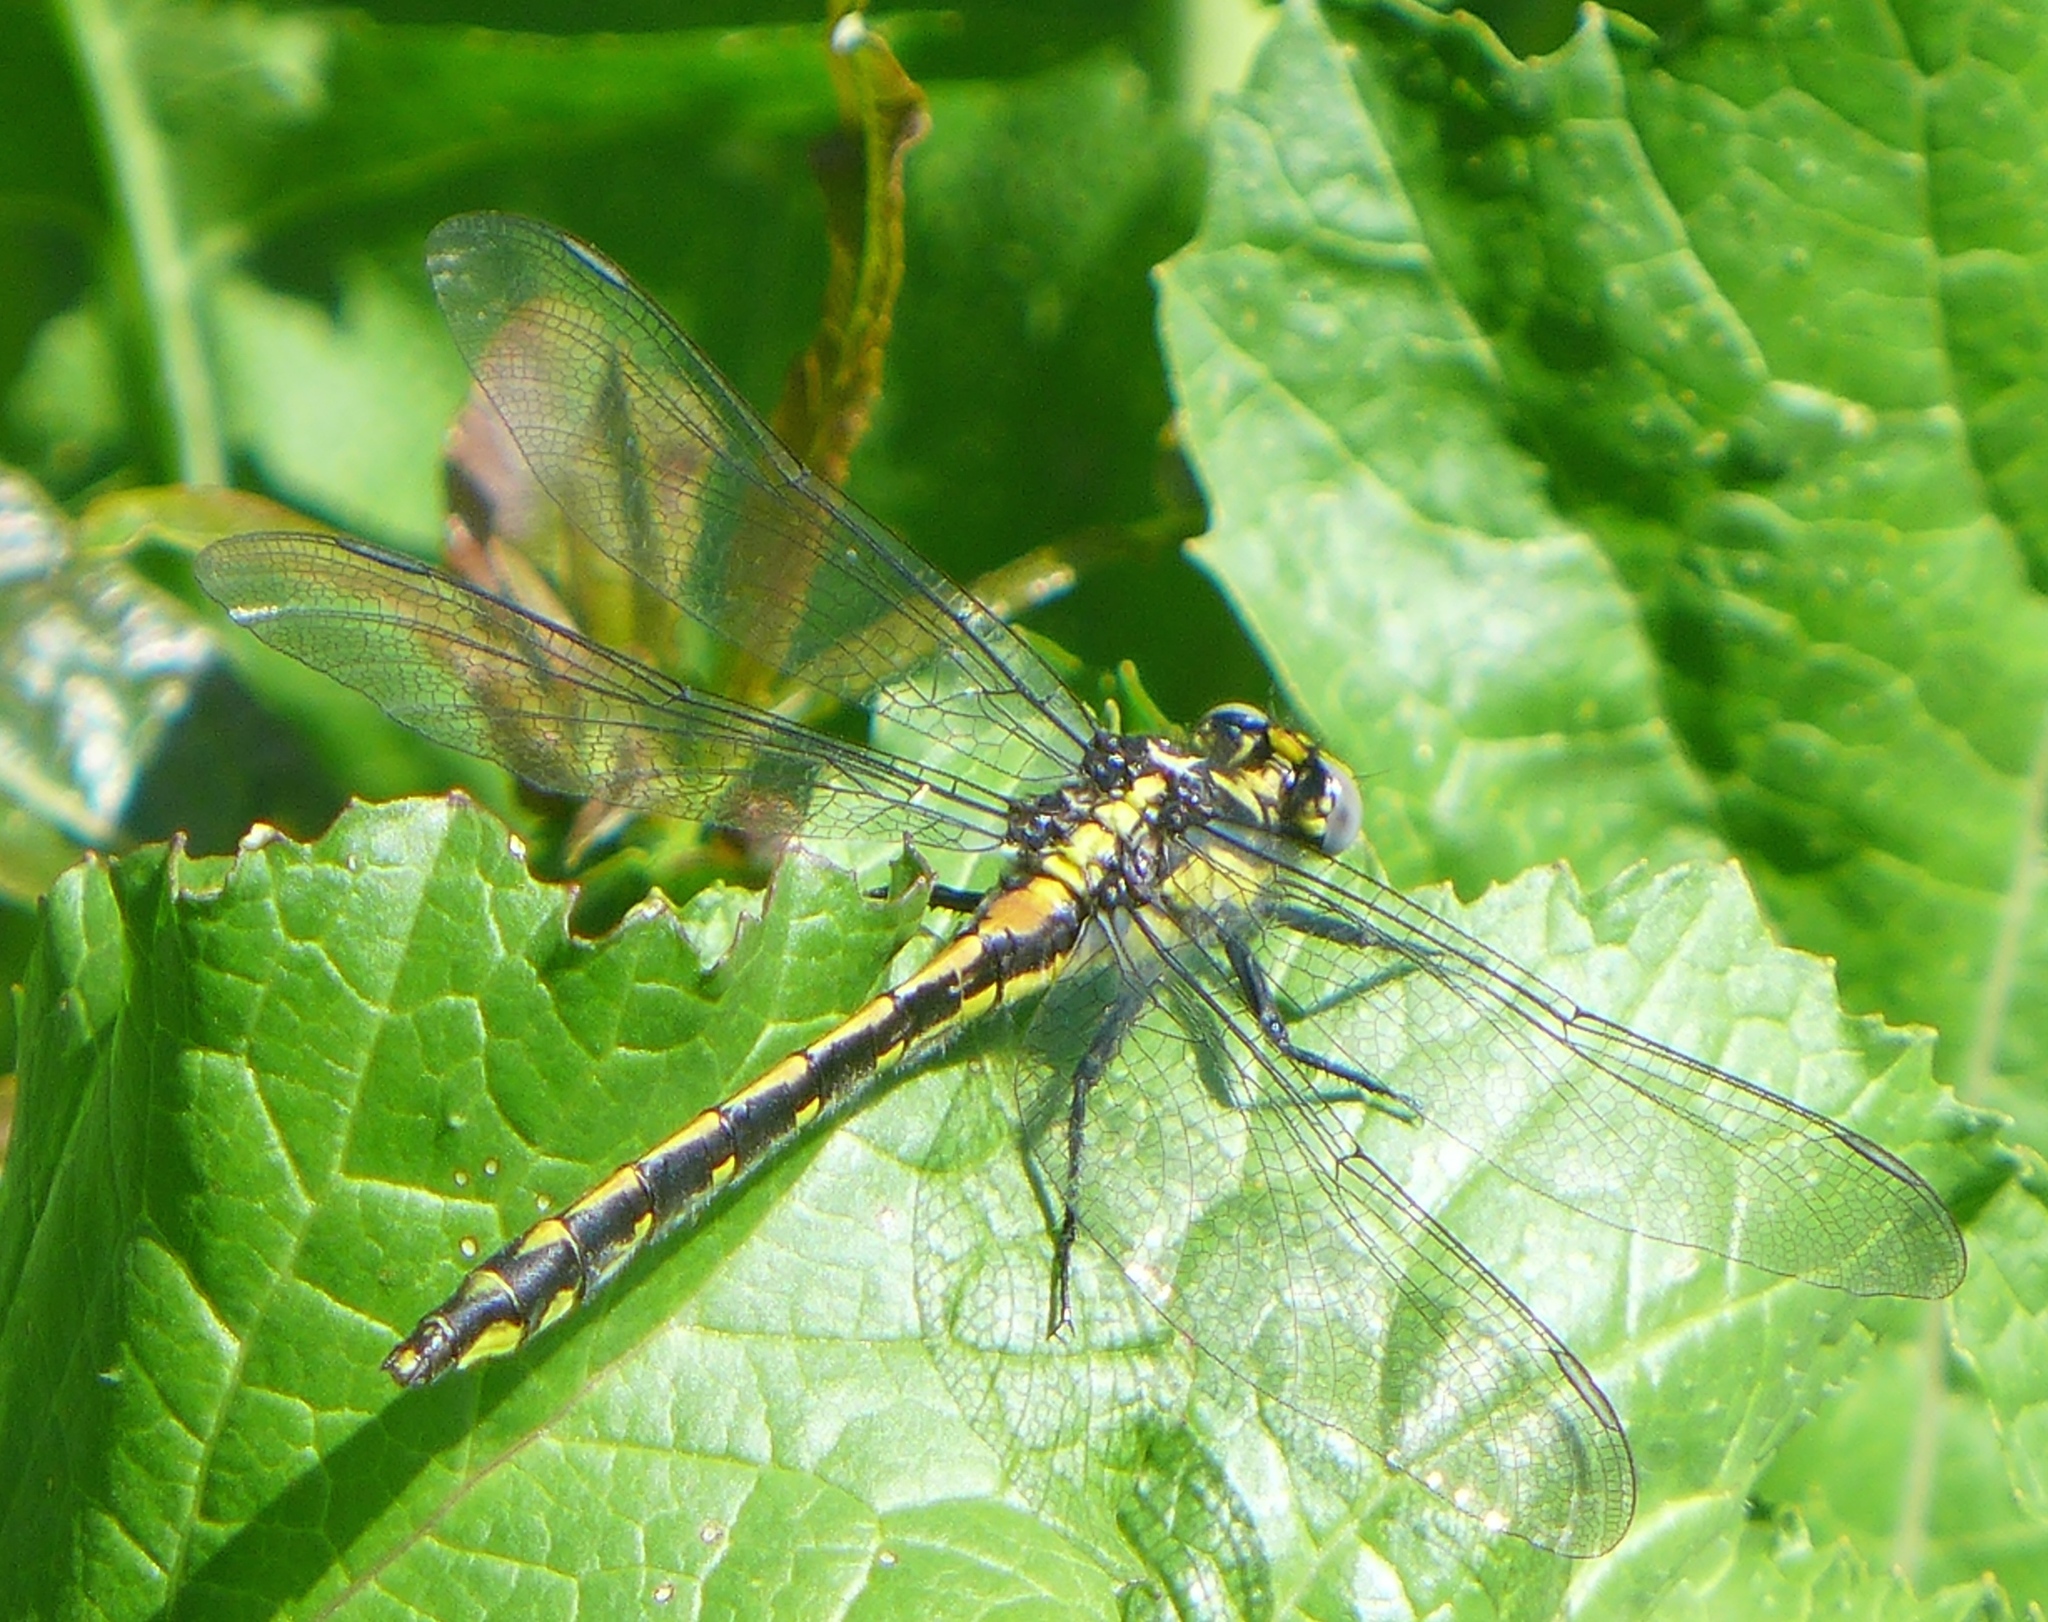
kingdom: Animalia
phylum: Arthropoda
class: Insecta
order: Odonata
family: Gomphidae
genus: Phanogomphus
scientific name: Phanogomphus kurilis
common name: Pacific clubtail
